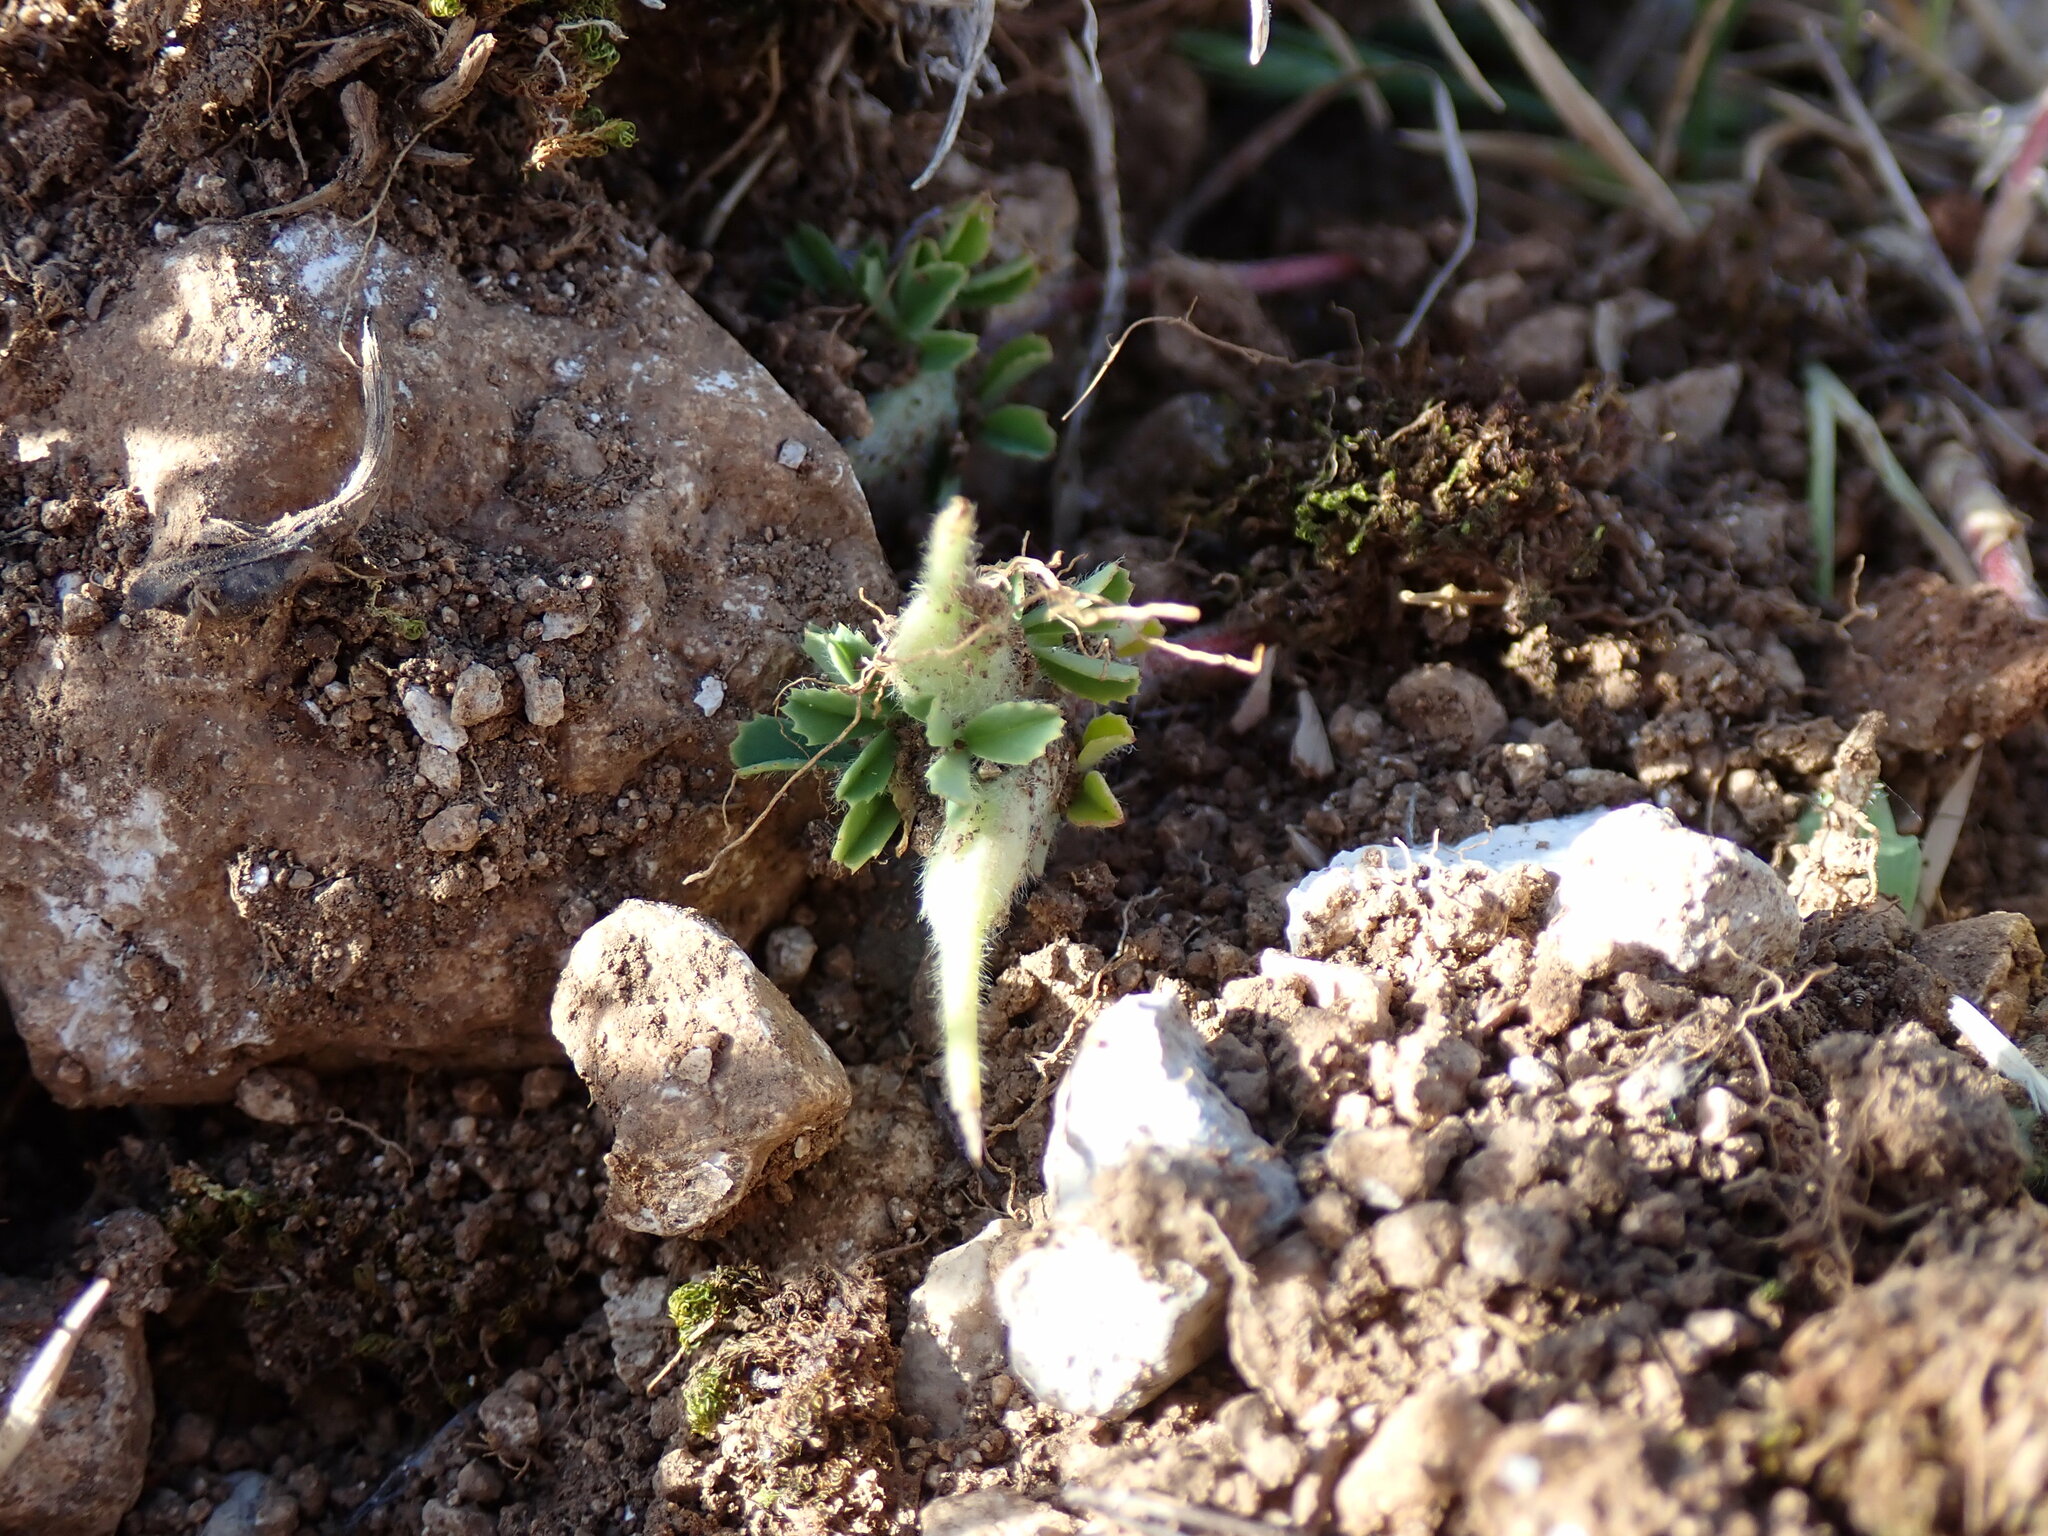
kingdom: Plantae
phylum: Tracheophyta
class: Magnoliopsida
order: Fabales
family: Fabaceae
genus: Trigonella
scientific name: Trigonella gladiata
